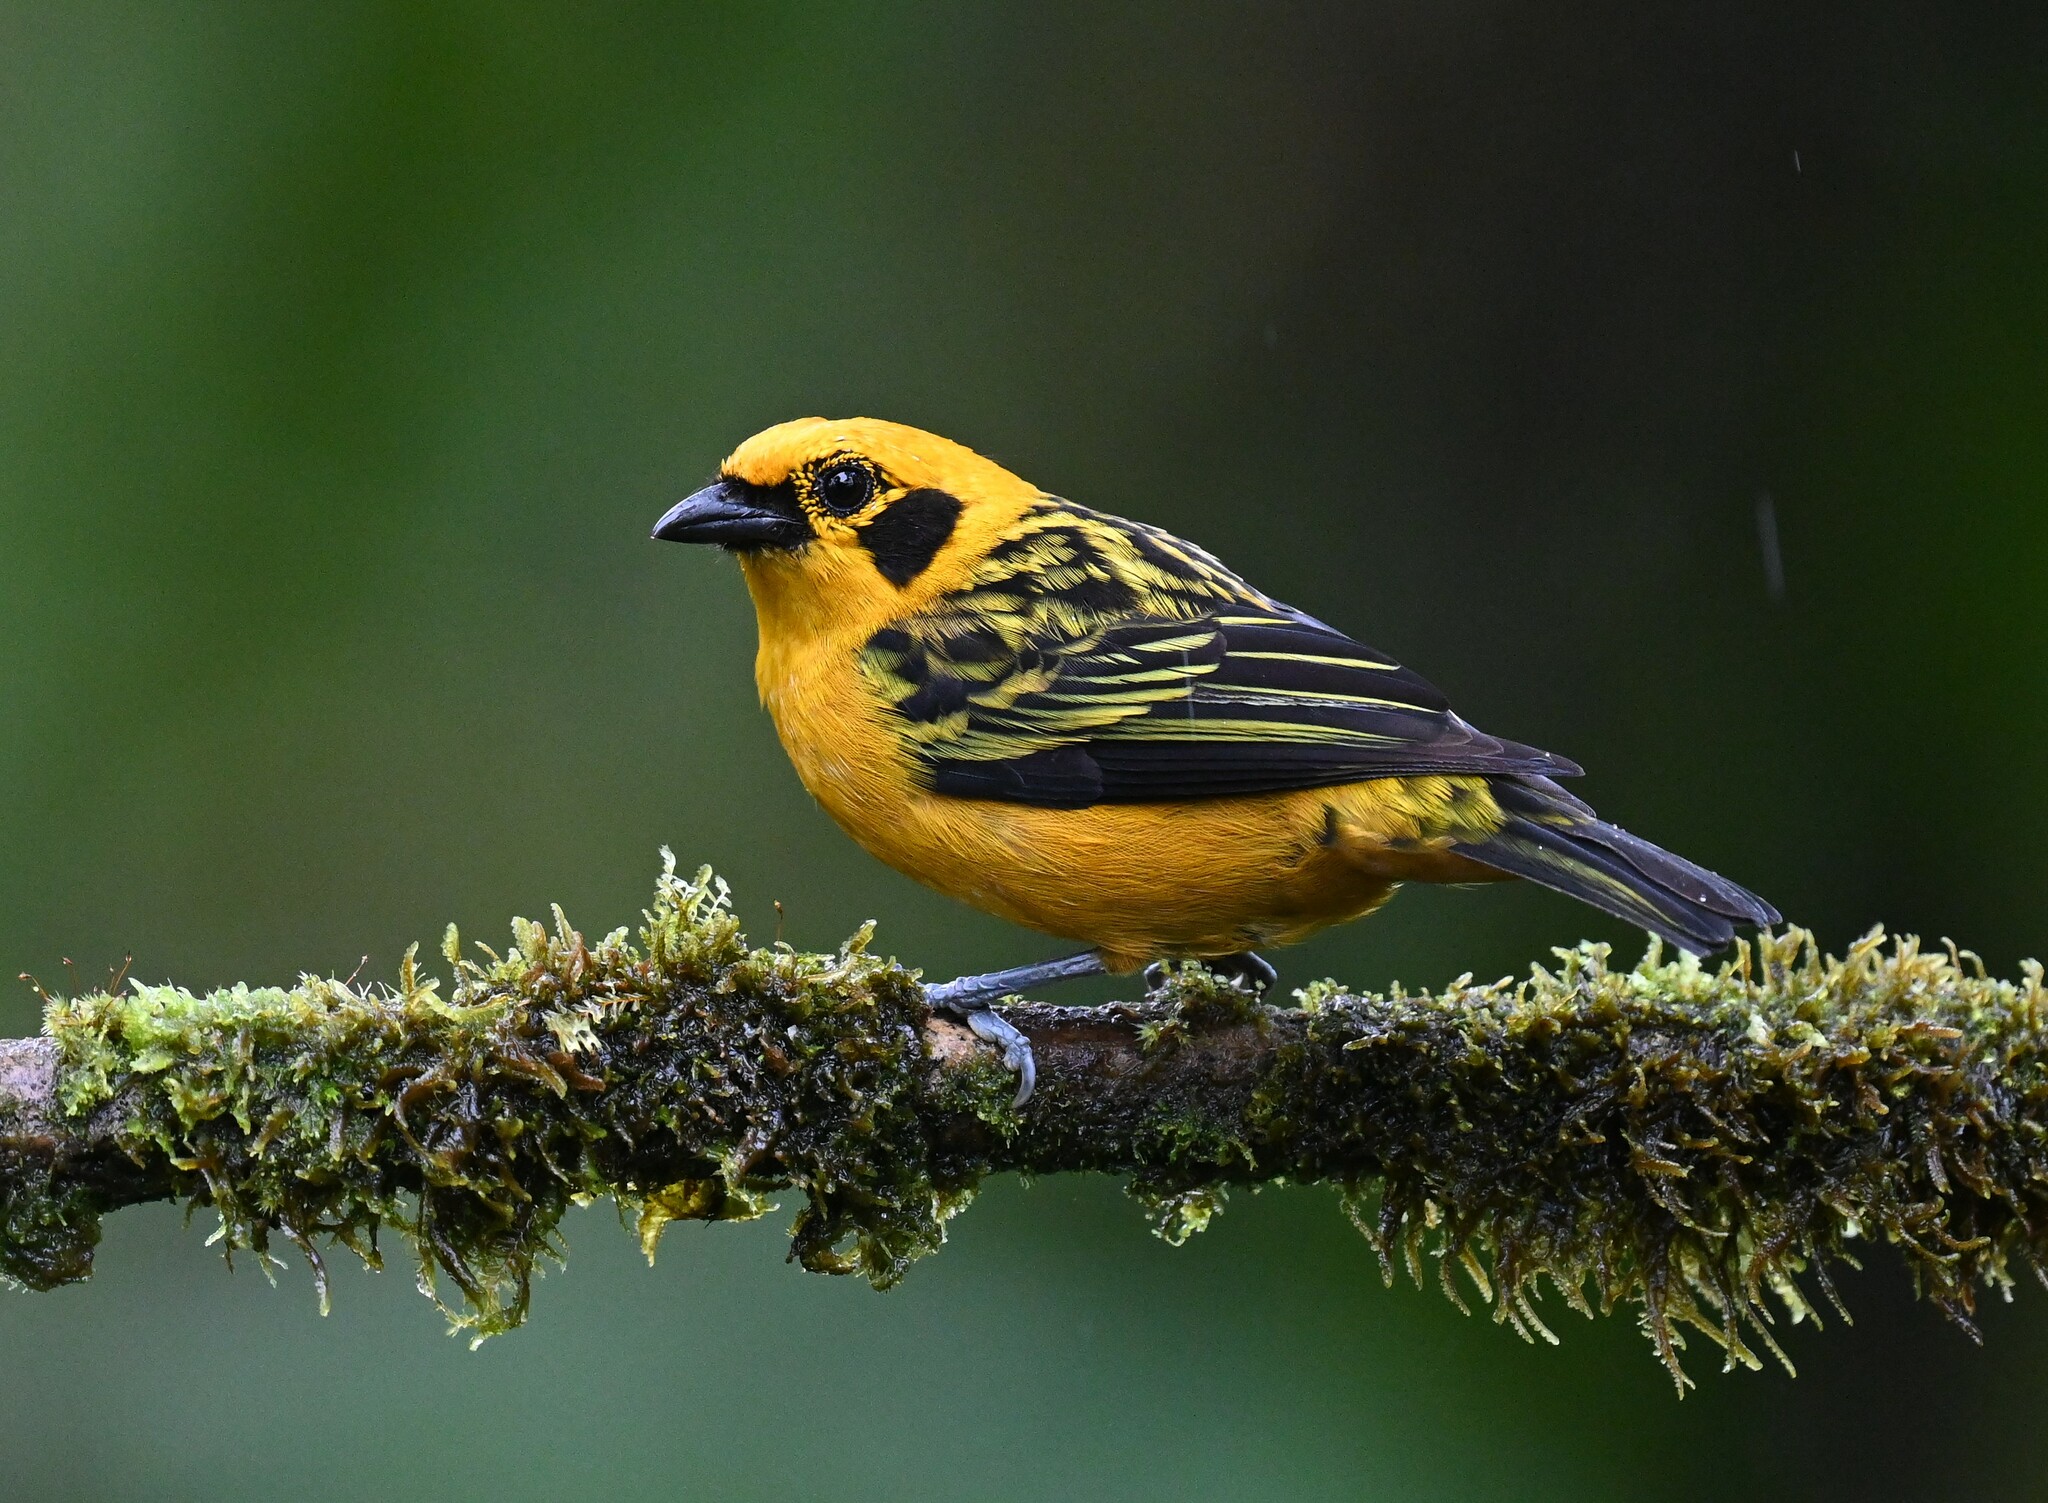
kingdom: Animalia
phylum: Chordata
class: Aves
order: Passeriformes
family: Thraupidae
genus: Tangara
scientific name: Tangara arthus
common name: Golden tanager
